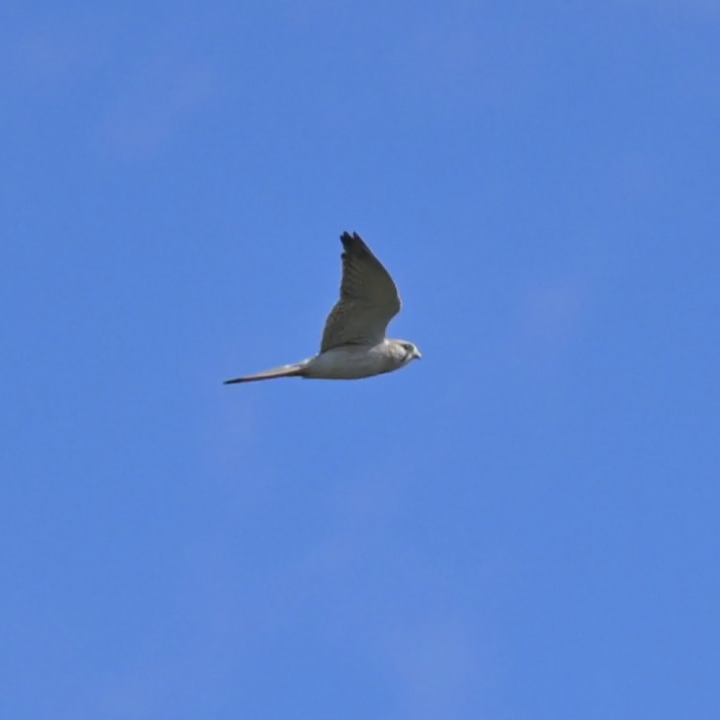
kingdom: Animalia
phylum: Chordata
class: Aves
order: Falconiformes
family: Falconidae
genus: Falco
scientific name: Falco cenchroides
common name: Nankeen kestrel
